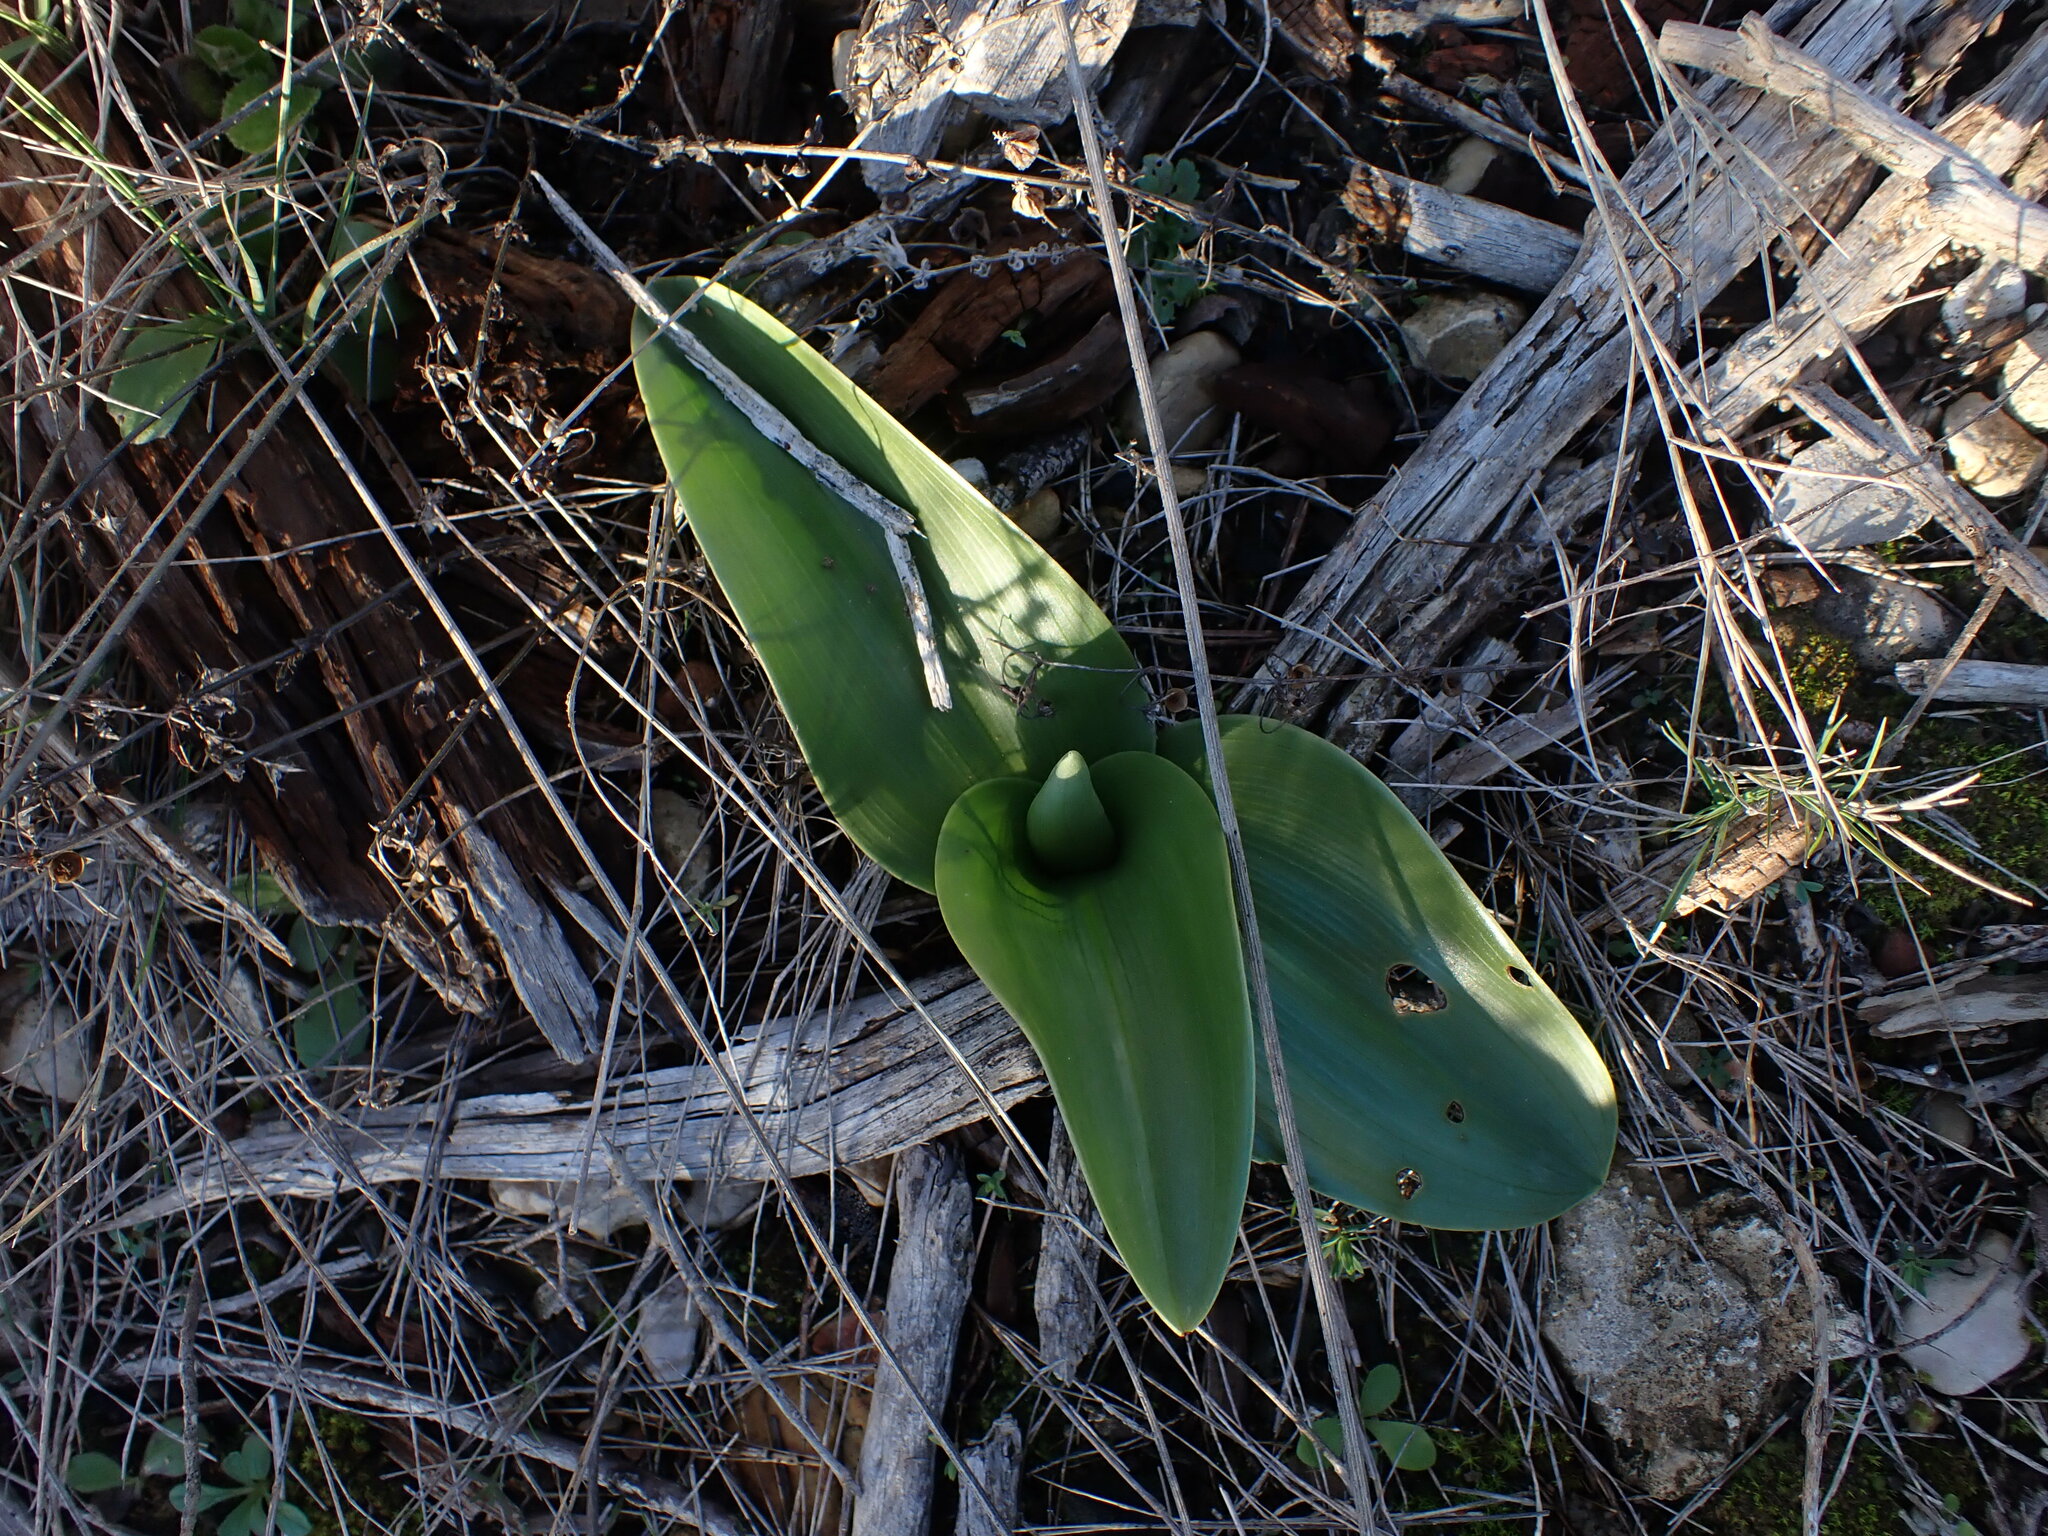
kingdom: Plantae
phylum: Tracheophyta
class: Liliopsida
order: Asparagales
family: Orchidaceae
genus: Himantoglossum
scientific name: Himantoglossum robertianum
